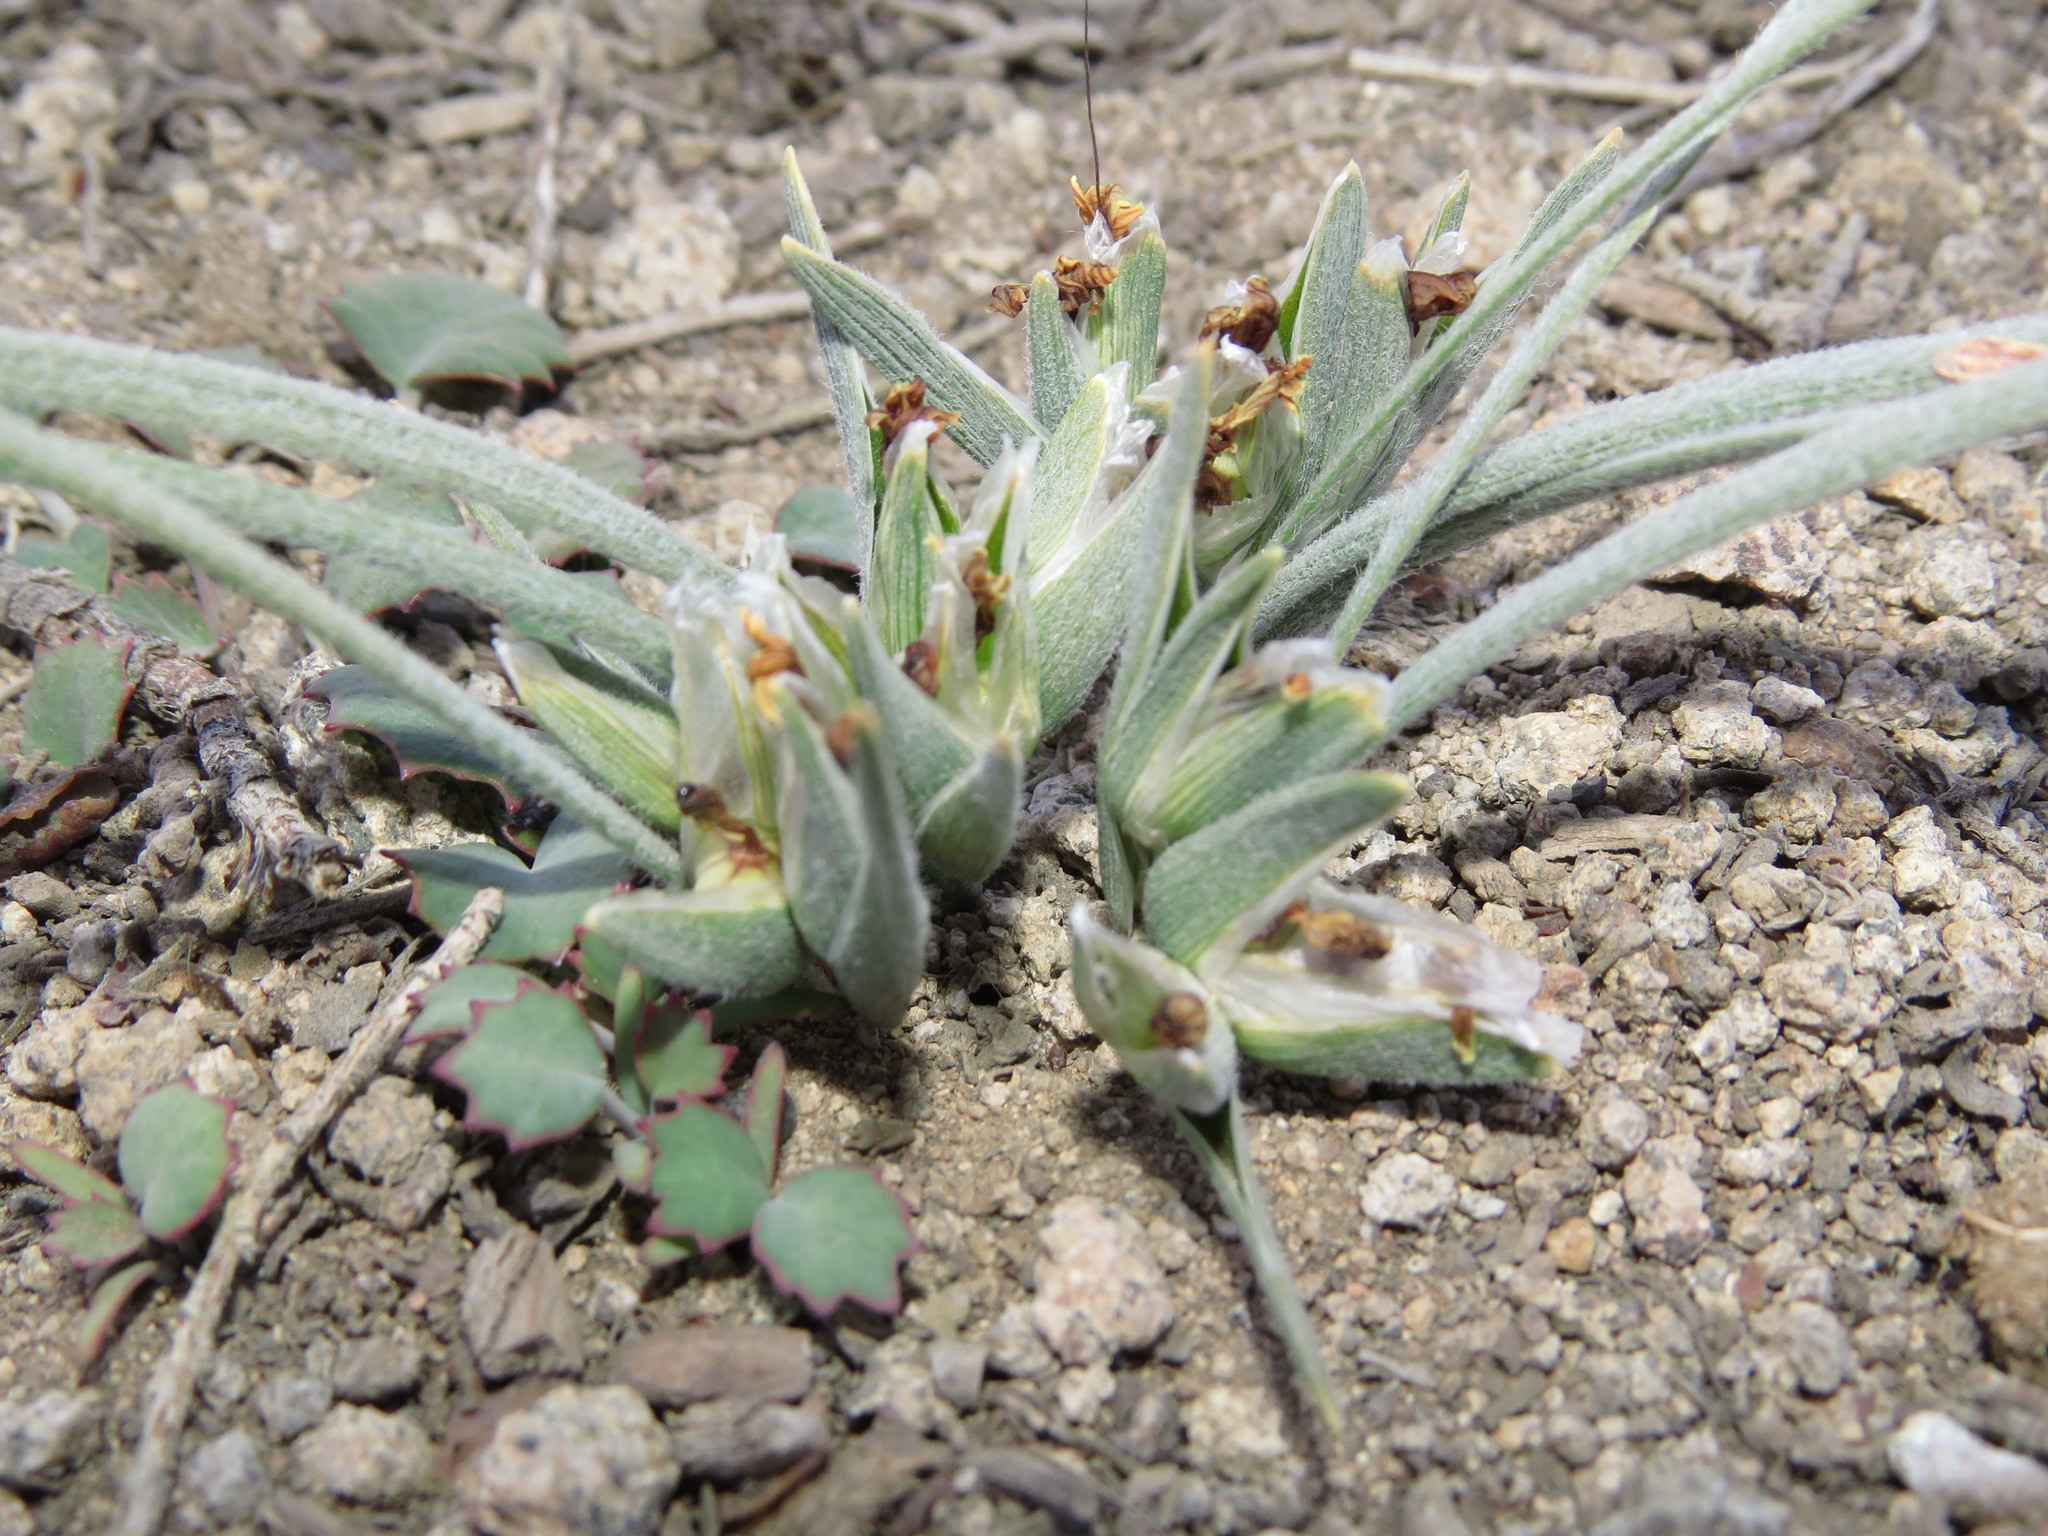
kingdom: Plantae
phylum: Tracheophyta
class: Liliopsida
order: Asparagales
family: Iridaceae
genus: Olsynium
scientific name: Olsynium chrysochromum
